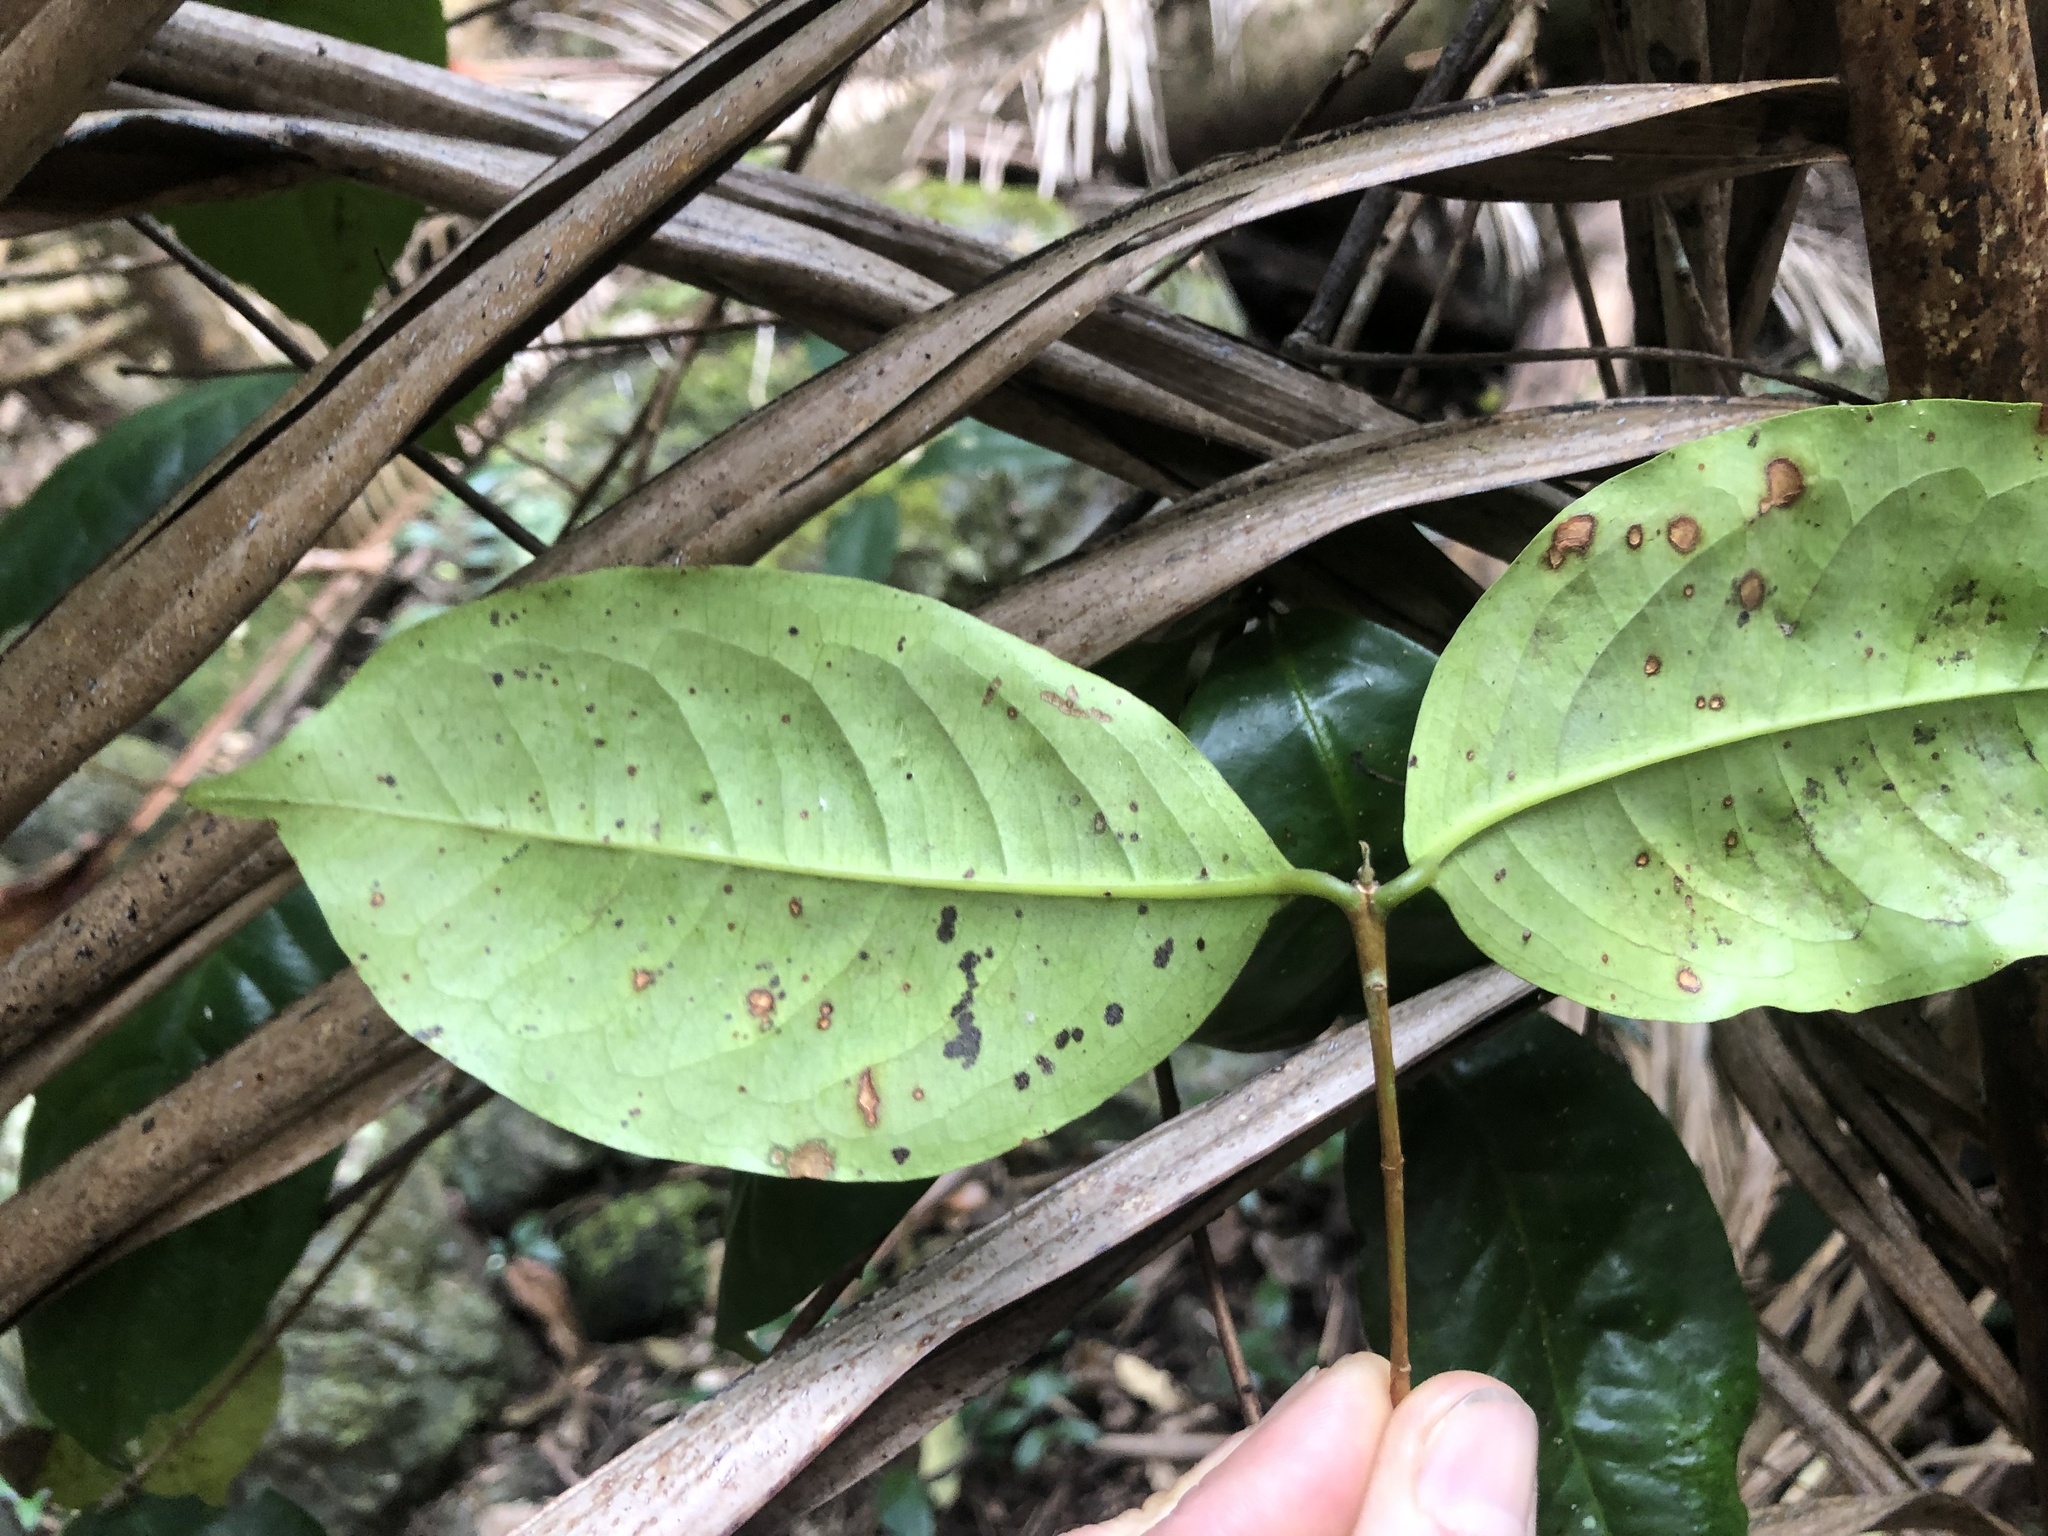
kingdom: Plantae
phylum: Tracheophyta
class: Magnoliopsida
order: Myrtales
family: Myrtaceae
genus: Syzygium
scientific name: Syzygium hodgkinsoniae
